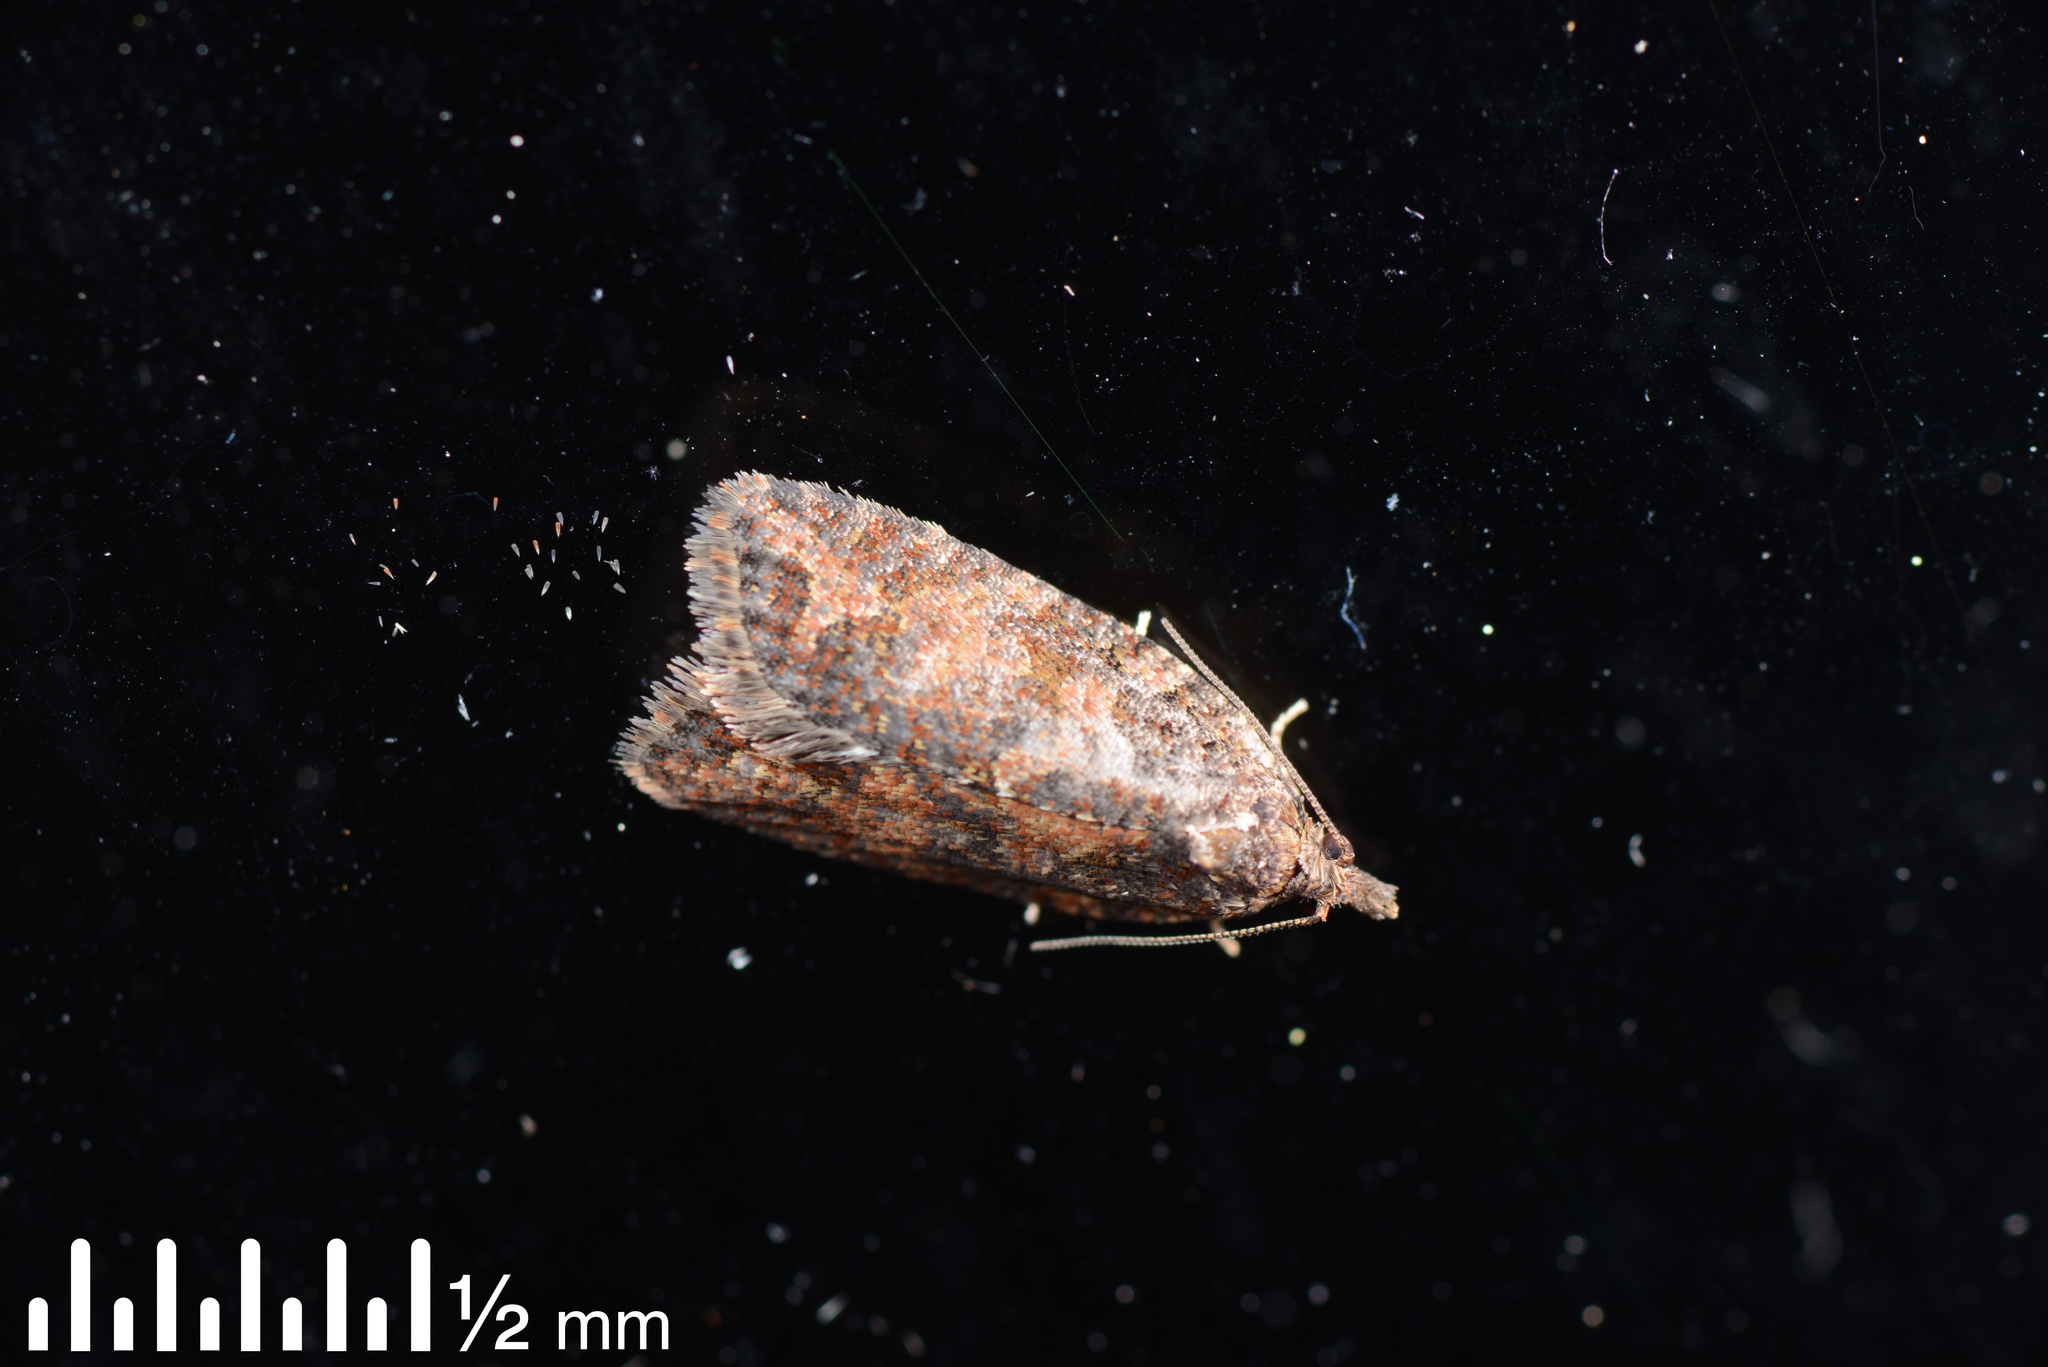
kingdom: Animalia
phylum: Arthropoda
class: Insecta
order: Lepidoptera
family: Tortricidae
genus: Capua
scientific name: Capua intractana
